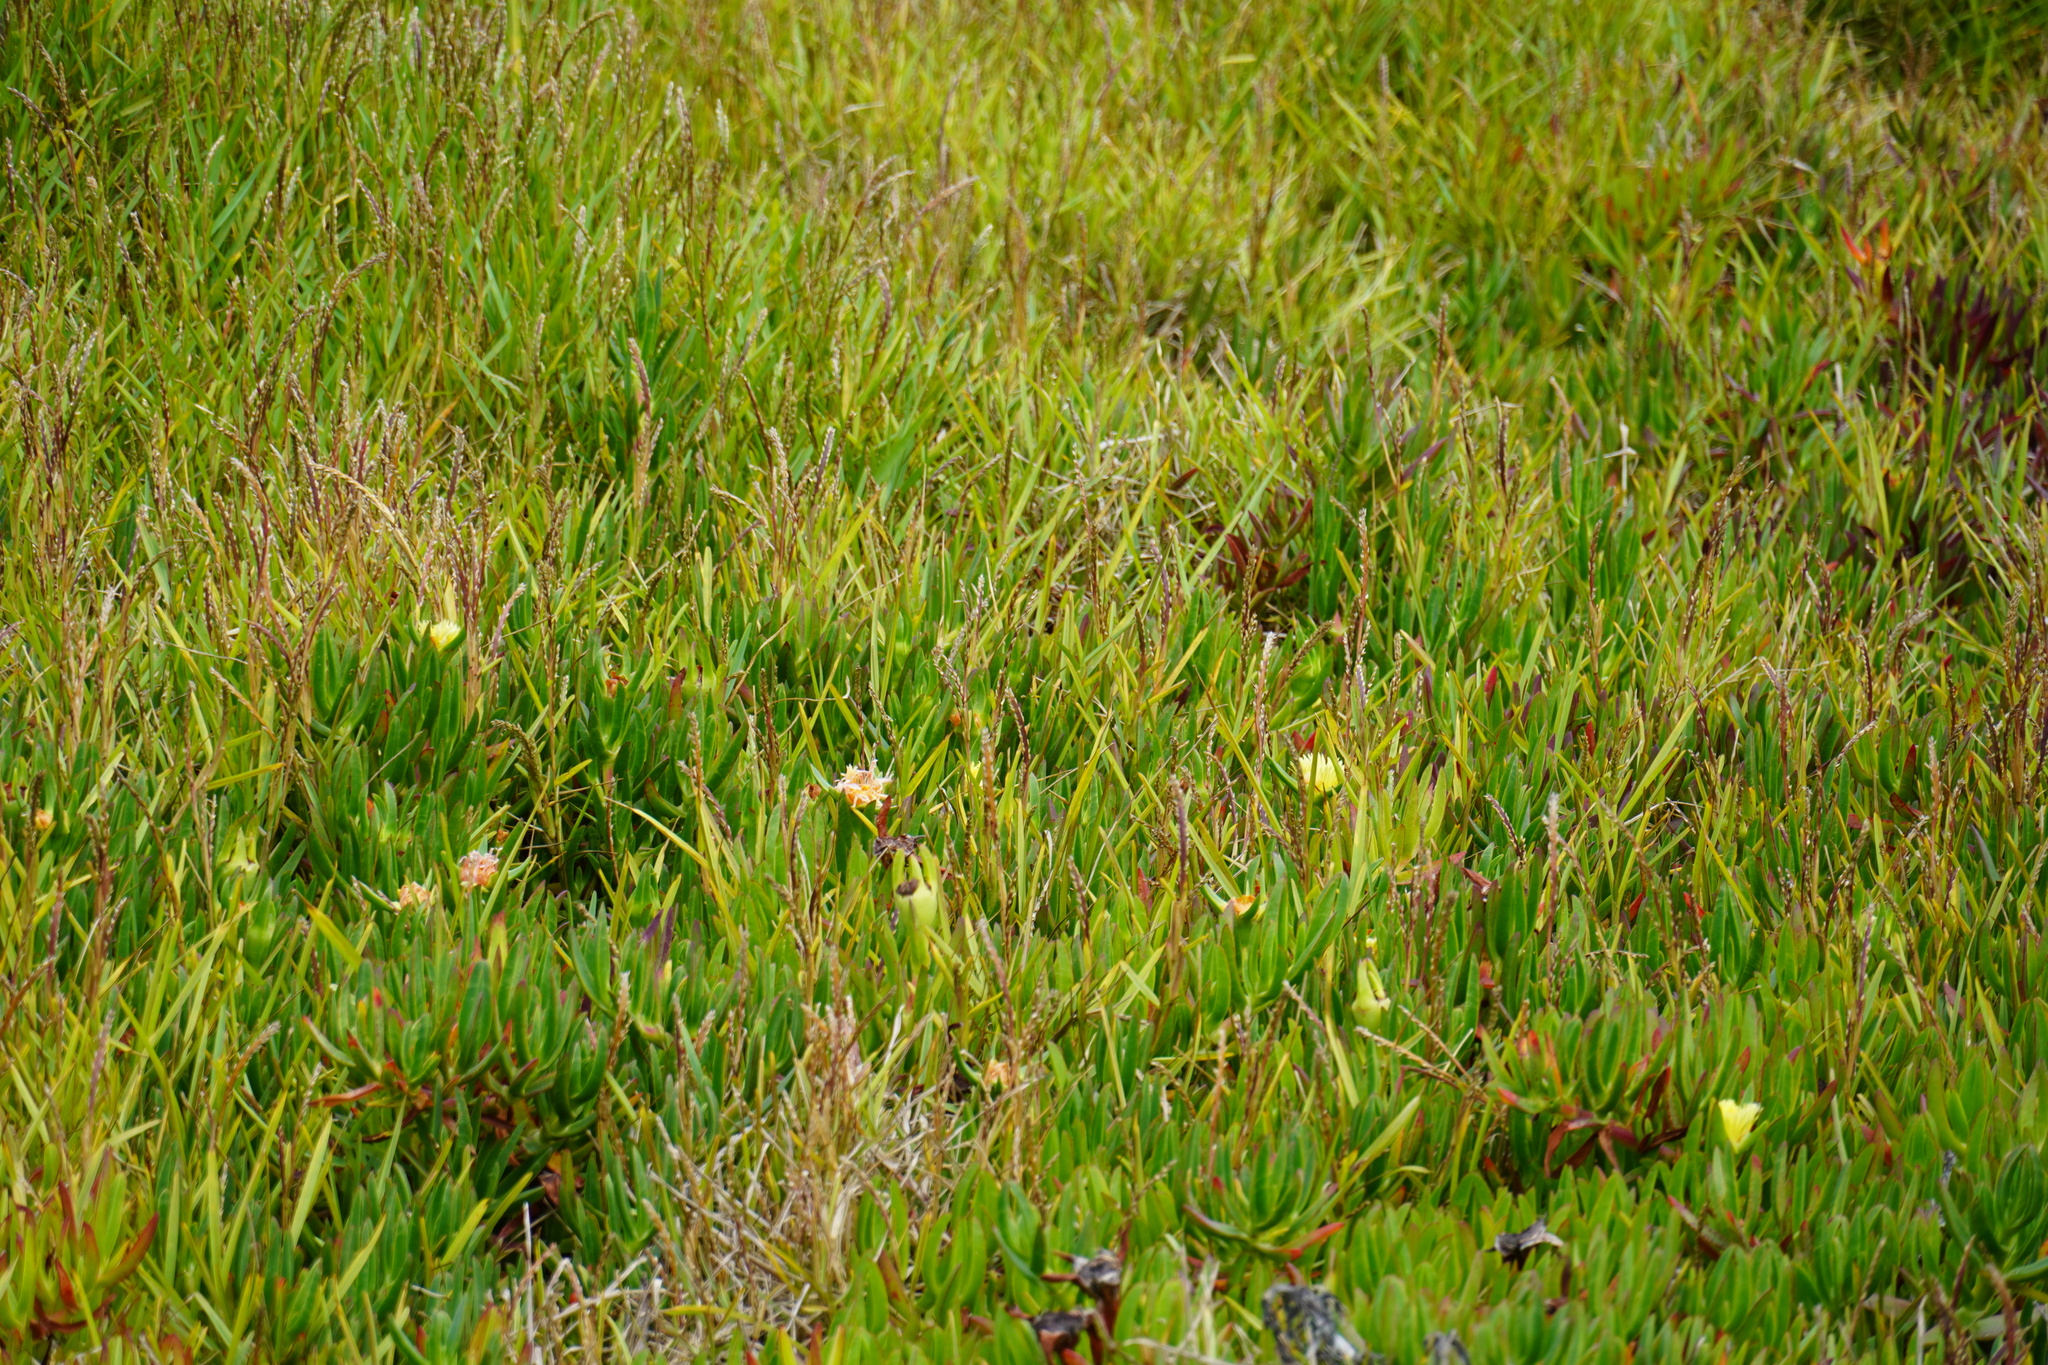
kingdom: Plantae
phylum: Tracheophyta
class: Magnoliopsida
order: Caryophyllales
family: Aizoaceae
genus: Carpobrotus
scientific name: Carpobrotus edulis
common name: Hottentot-fig
